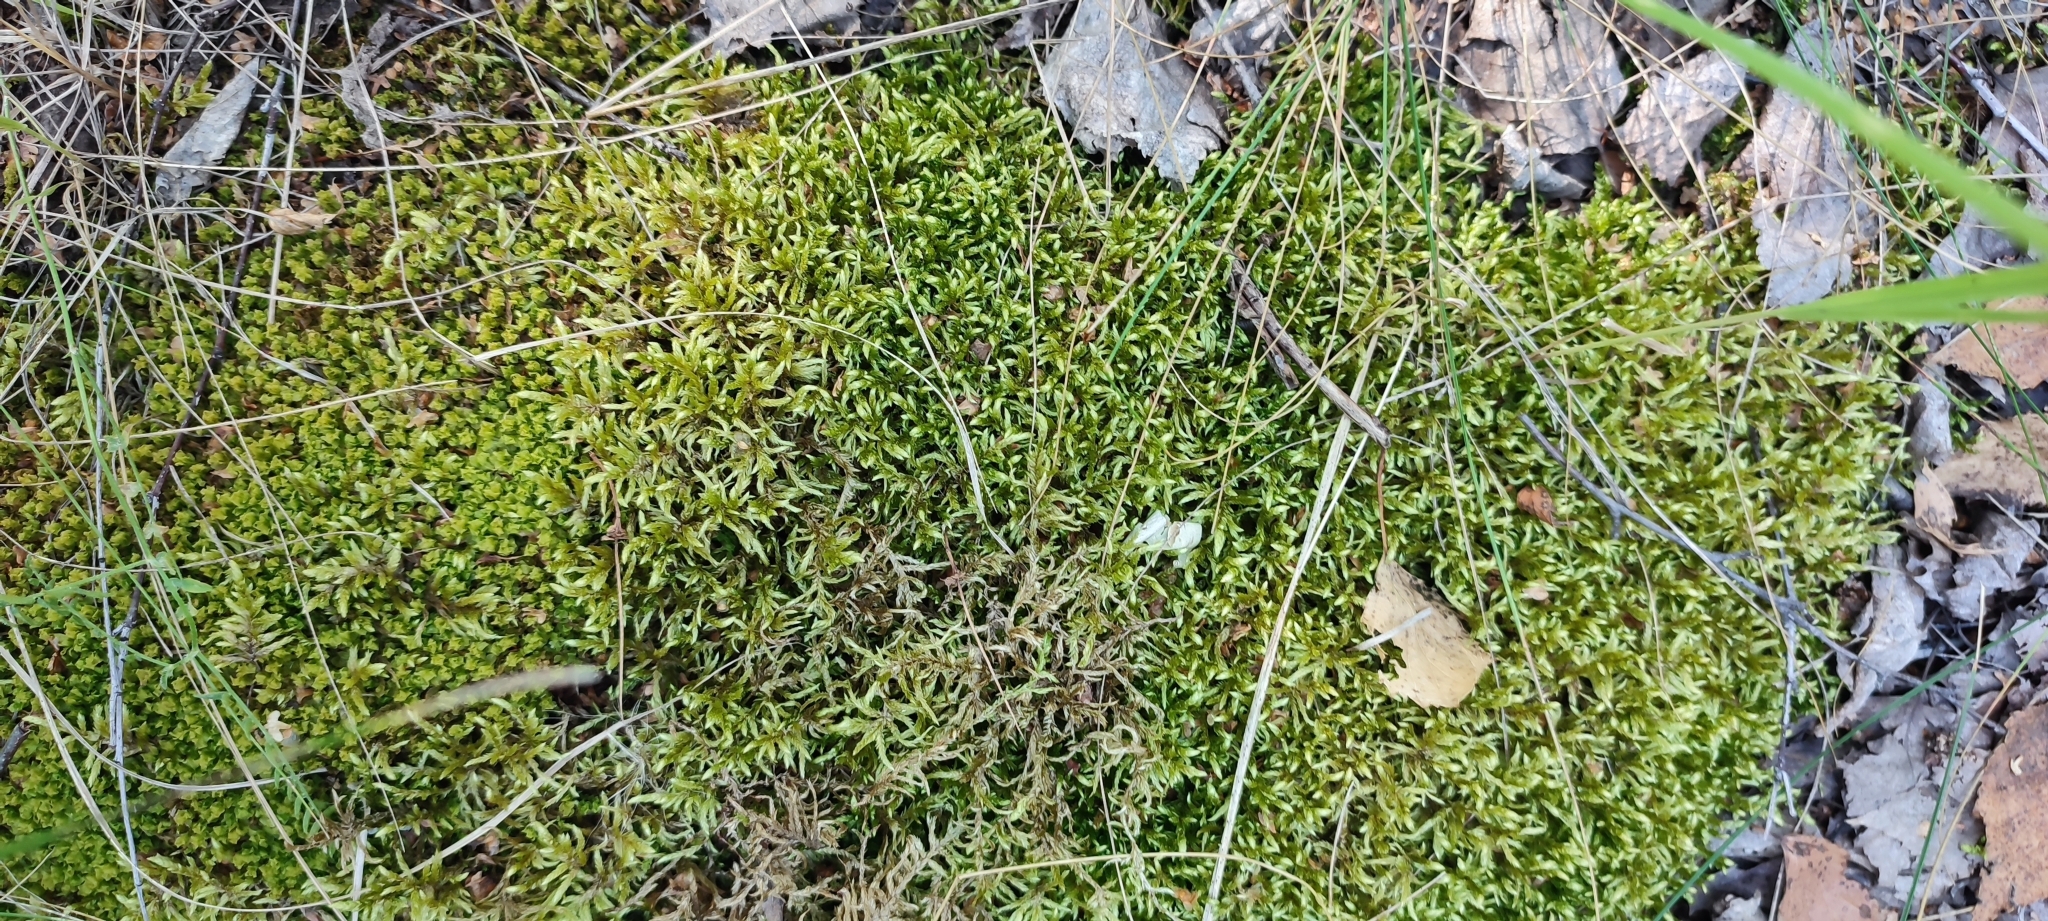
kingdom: Plantae
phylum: Bryophyta
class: Bryopsida
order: Hypnales
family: Hylocomiaceae
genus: Pleurozium
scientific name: Pleurozium schreberi
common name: Red-stemmed feather moss
